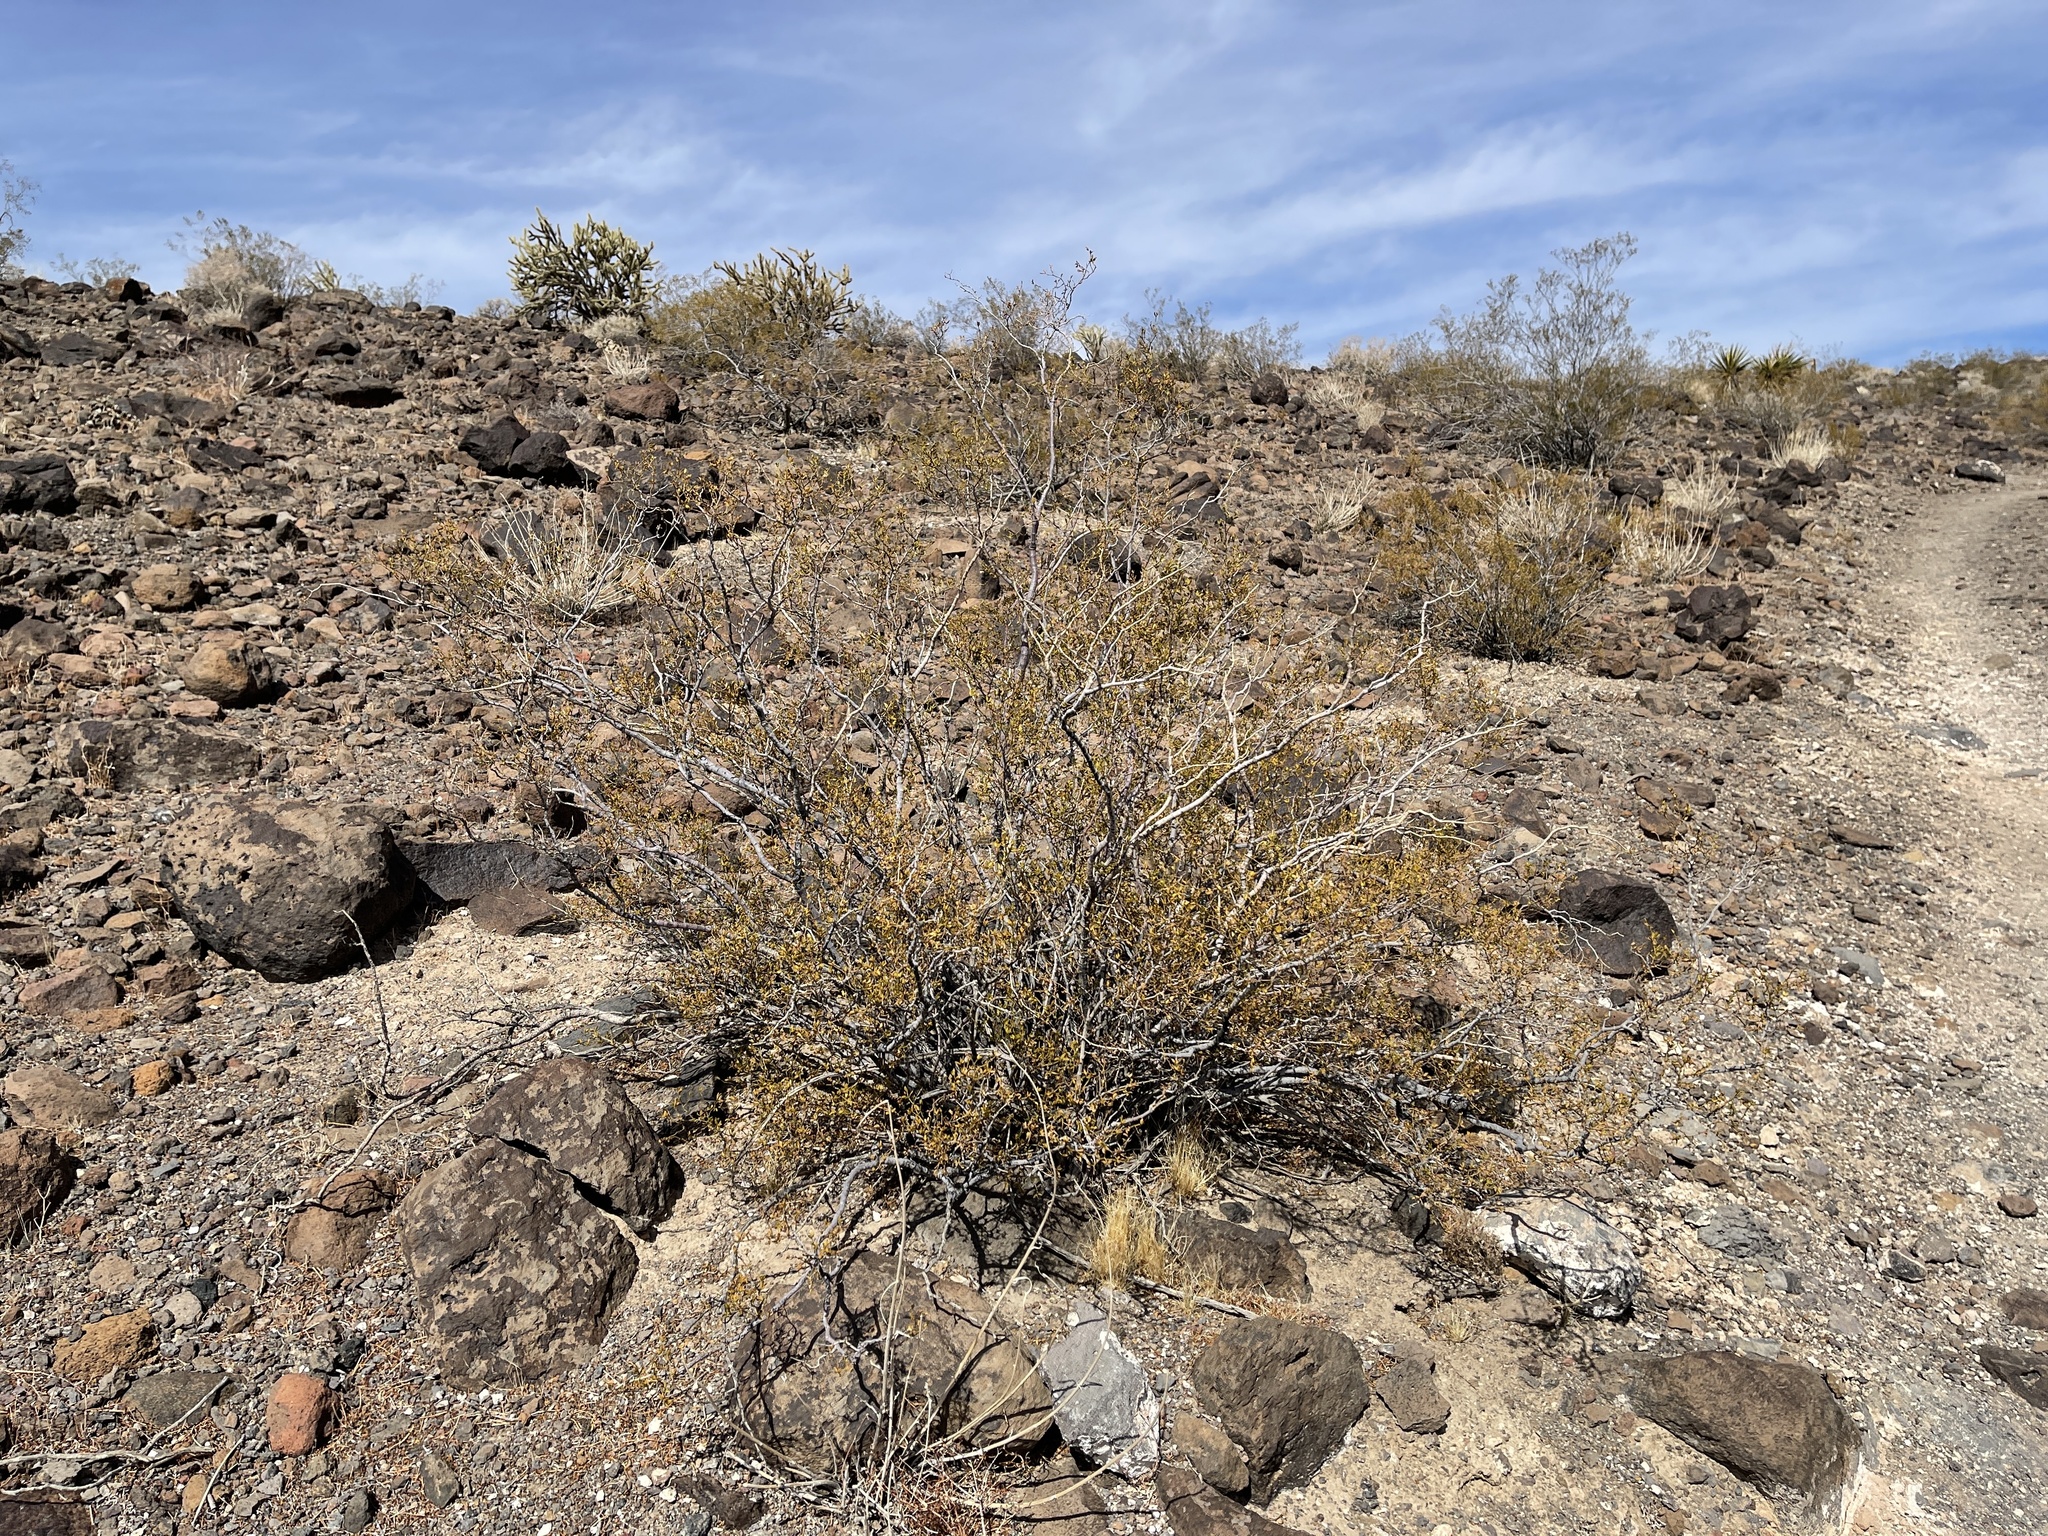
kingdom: Plantae
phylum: Tracheophyta
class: Magnoliopsida
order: Zygophyllales
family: Zygophyllaceae
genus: Larrea
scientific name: Larrea tridentata
